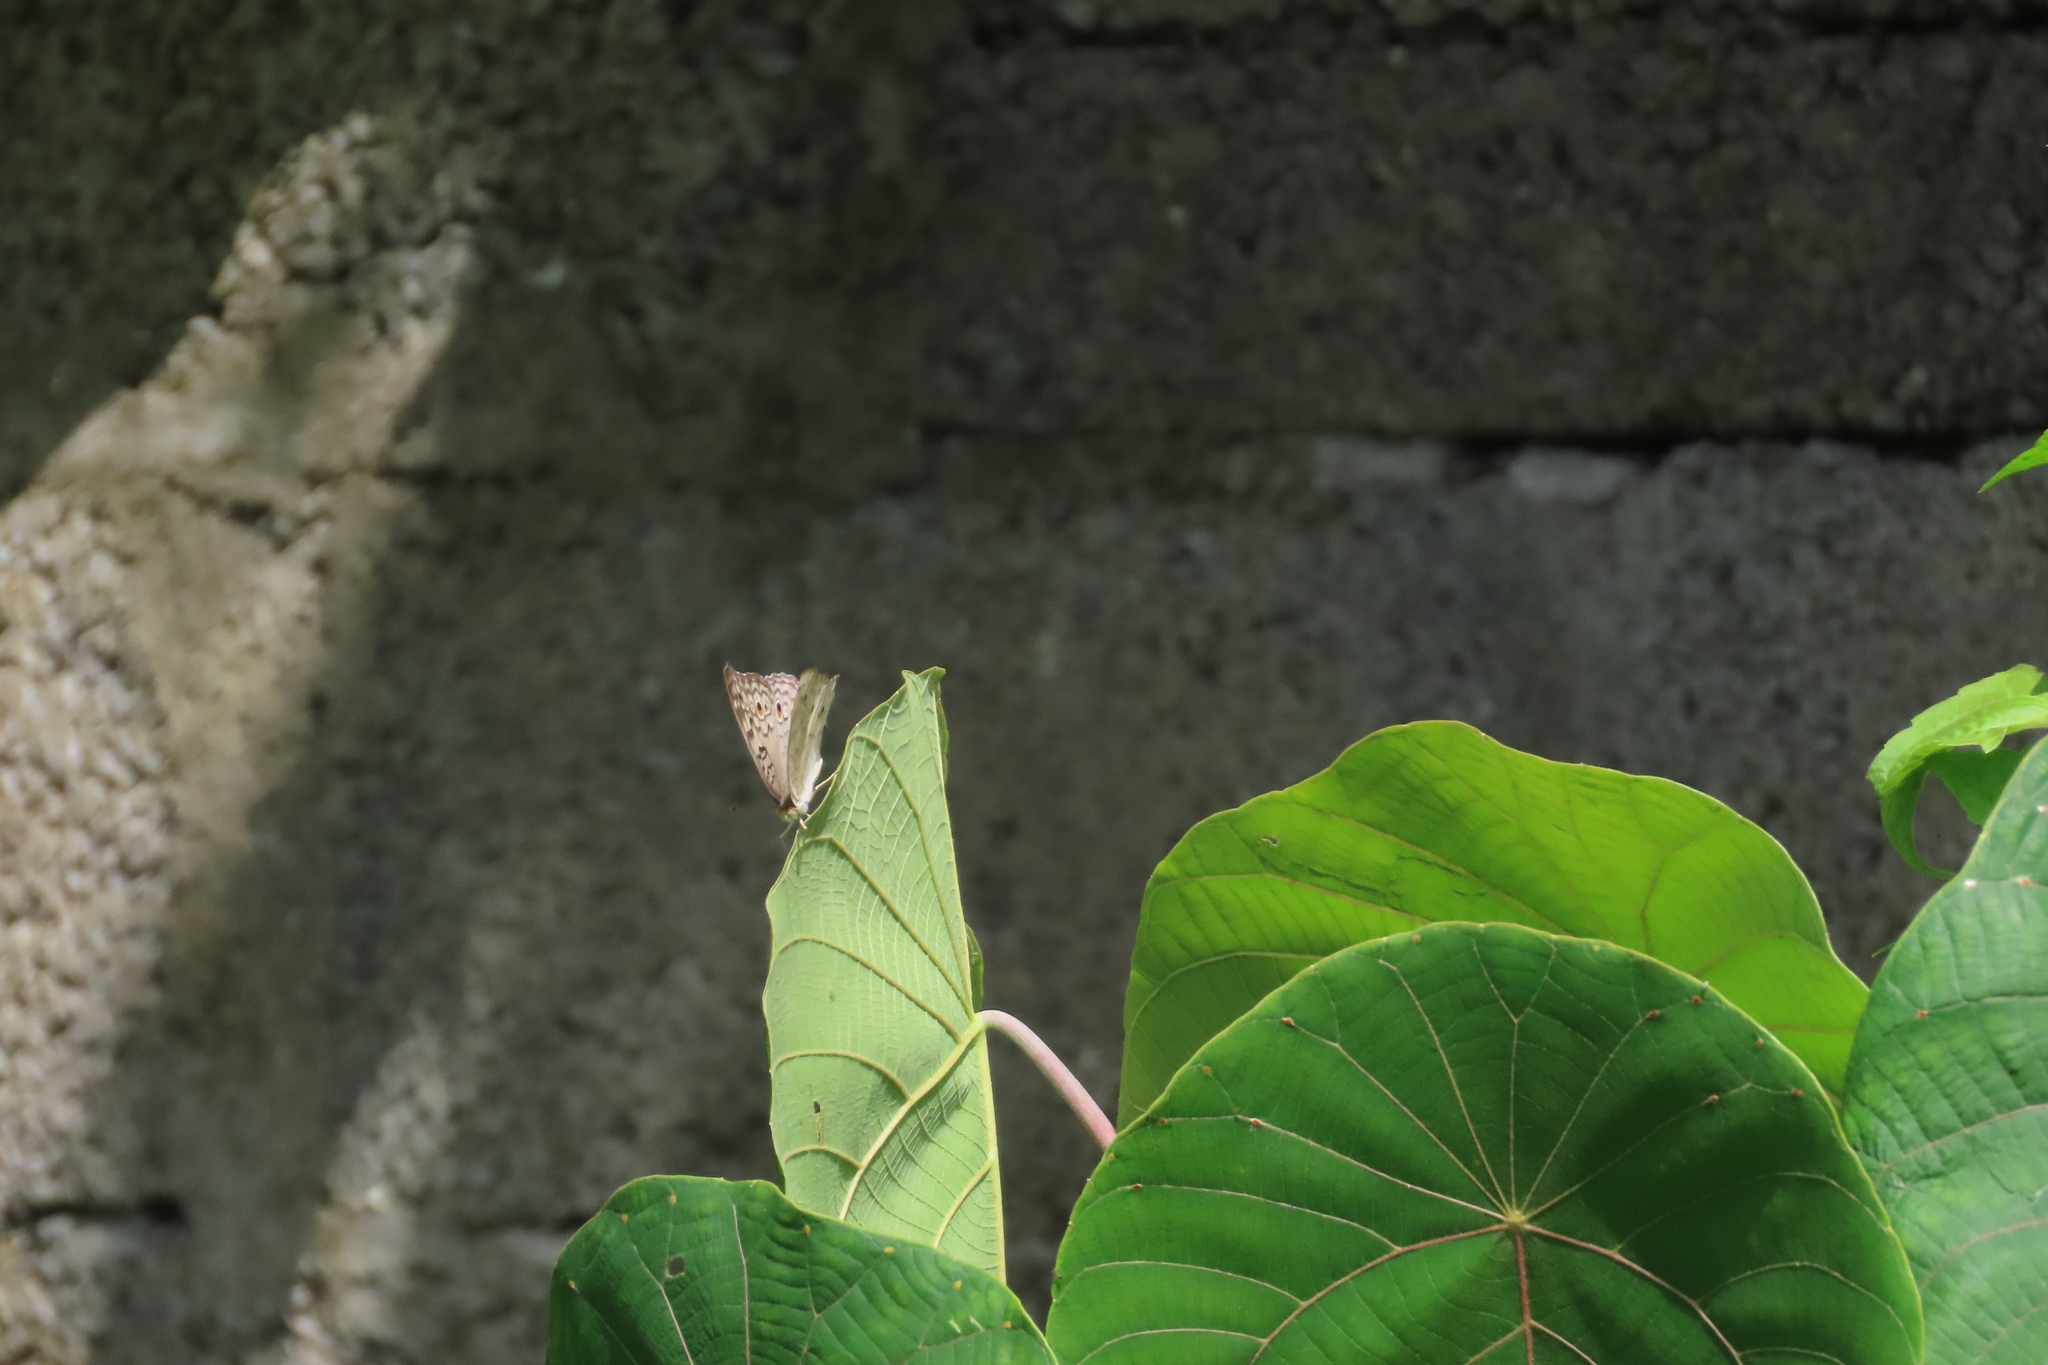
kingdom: Animalia
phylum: Arthropoda
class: Insecta
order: Lepidoptera
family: Nymphalidae
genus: Junonia
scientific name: Junonia atlites
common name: Grey pansy
